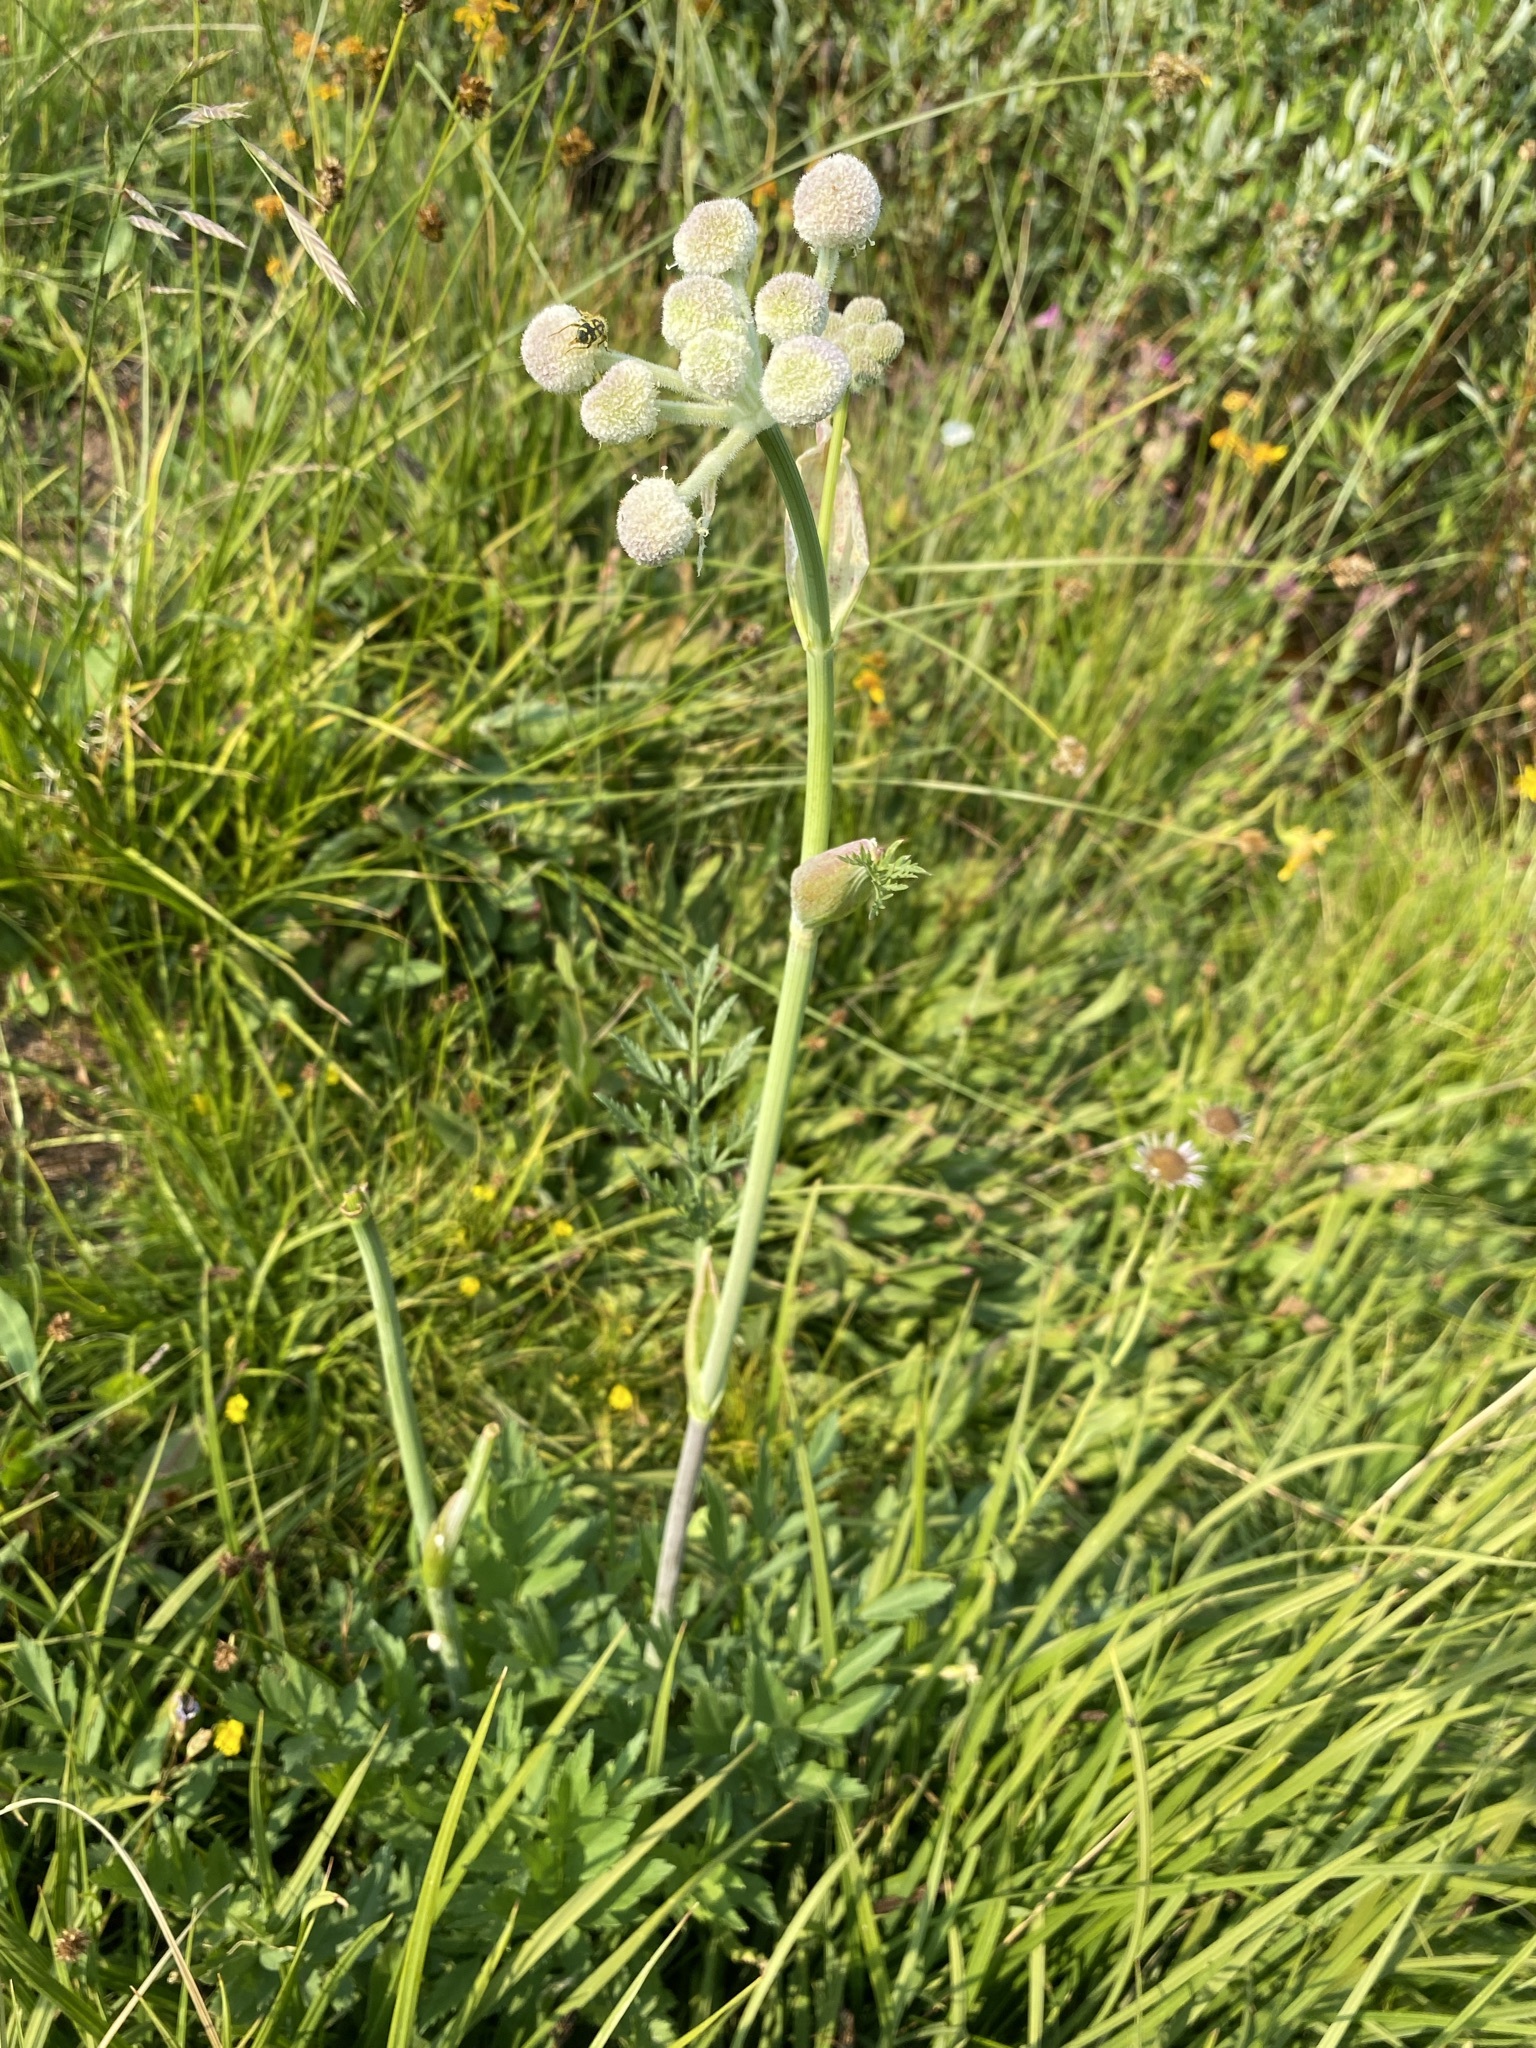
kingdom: Plantae
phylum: Tracheophyta
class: Magnoliopsida
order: Apiales
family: Apiaceae
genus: Angelica
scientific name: Angelica capitellata
